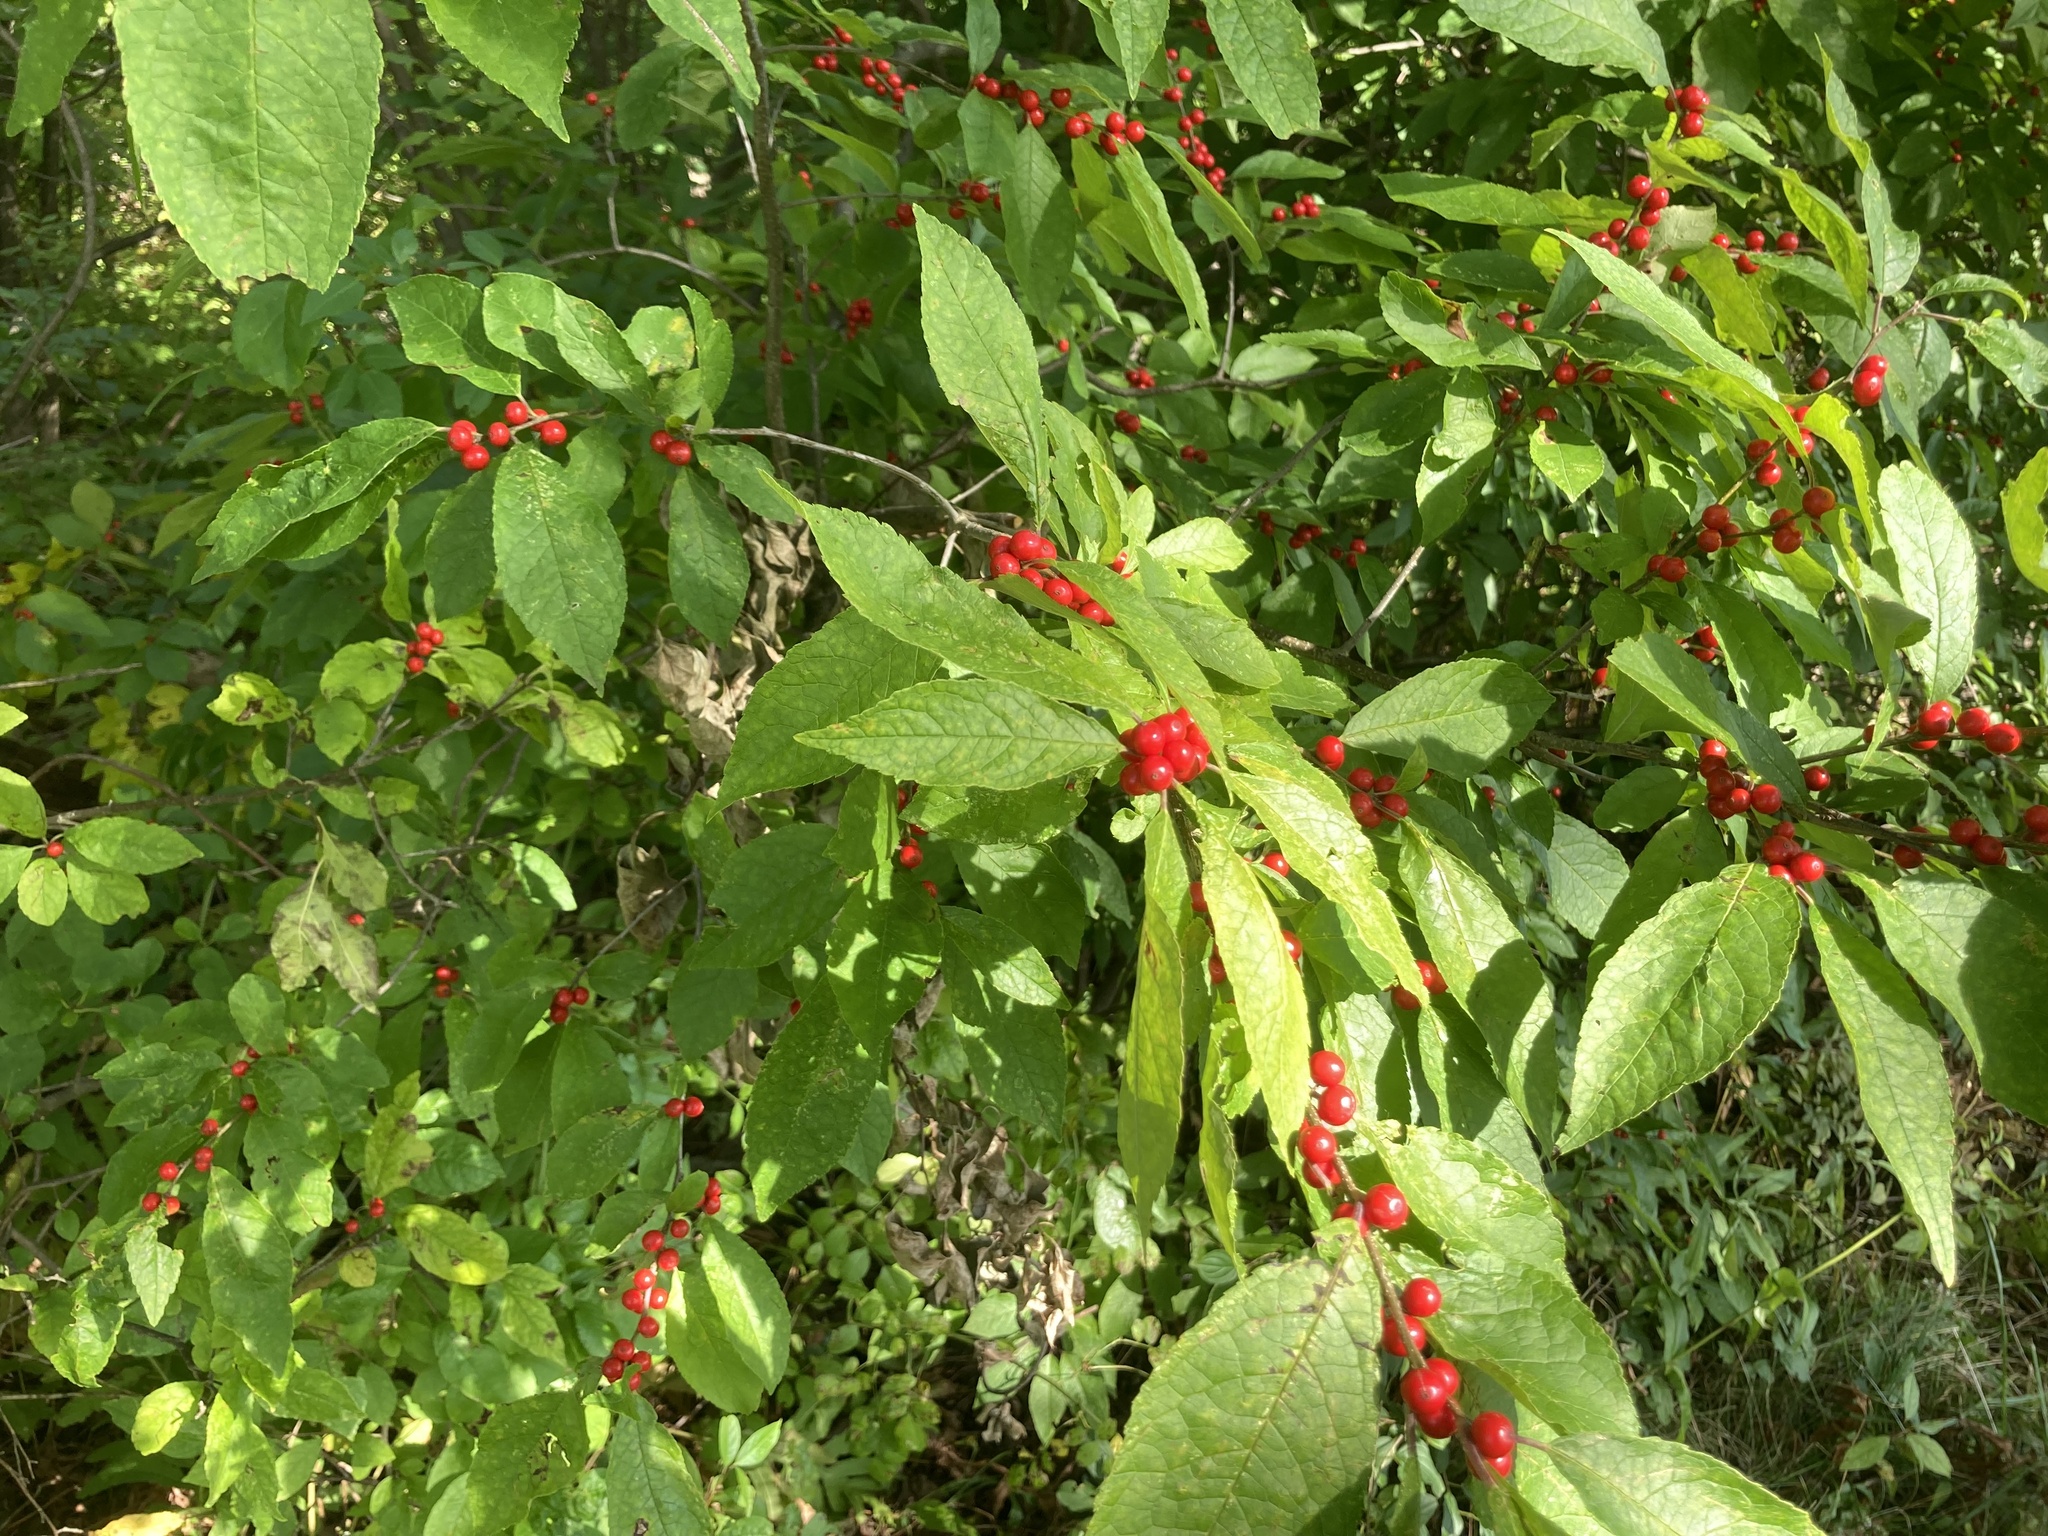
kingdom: Plantae
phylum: Tracheophyta
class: Magnoliopsida
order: Aquifoliales
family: Aquifoliaceae
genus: Ilex
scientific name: Ilex verticillata
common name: Virginia winterberry
